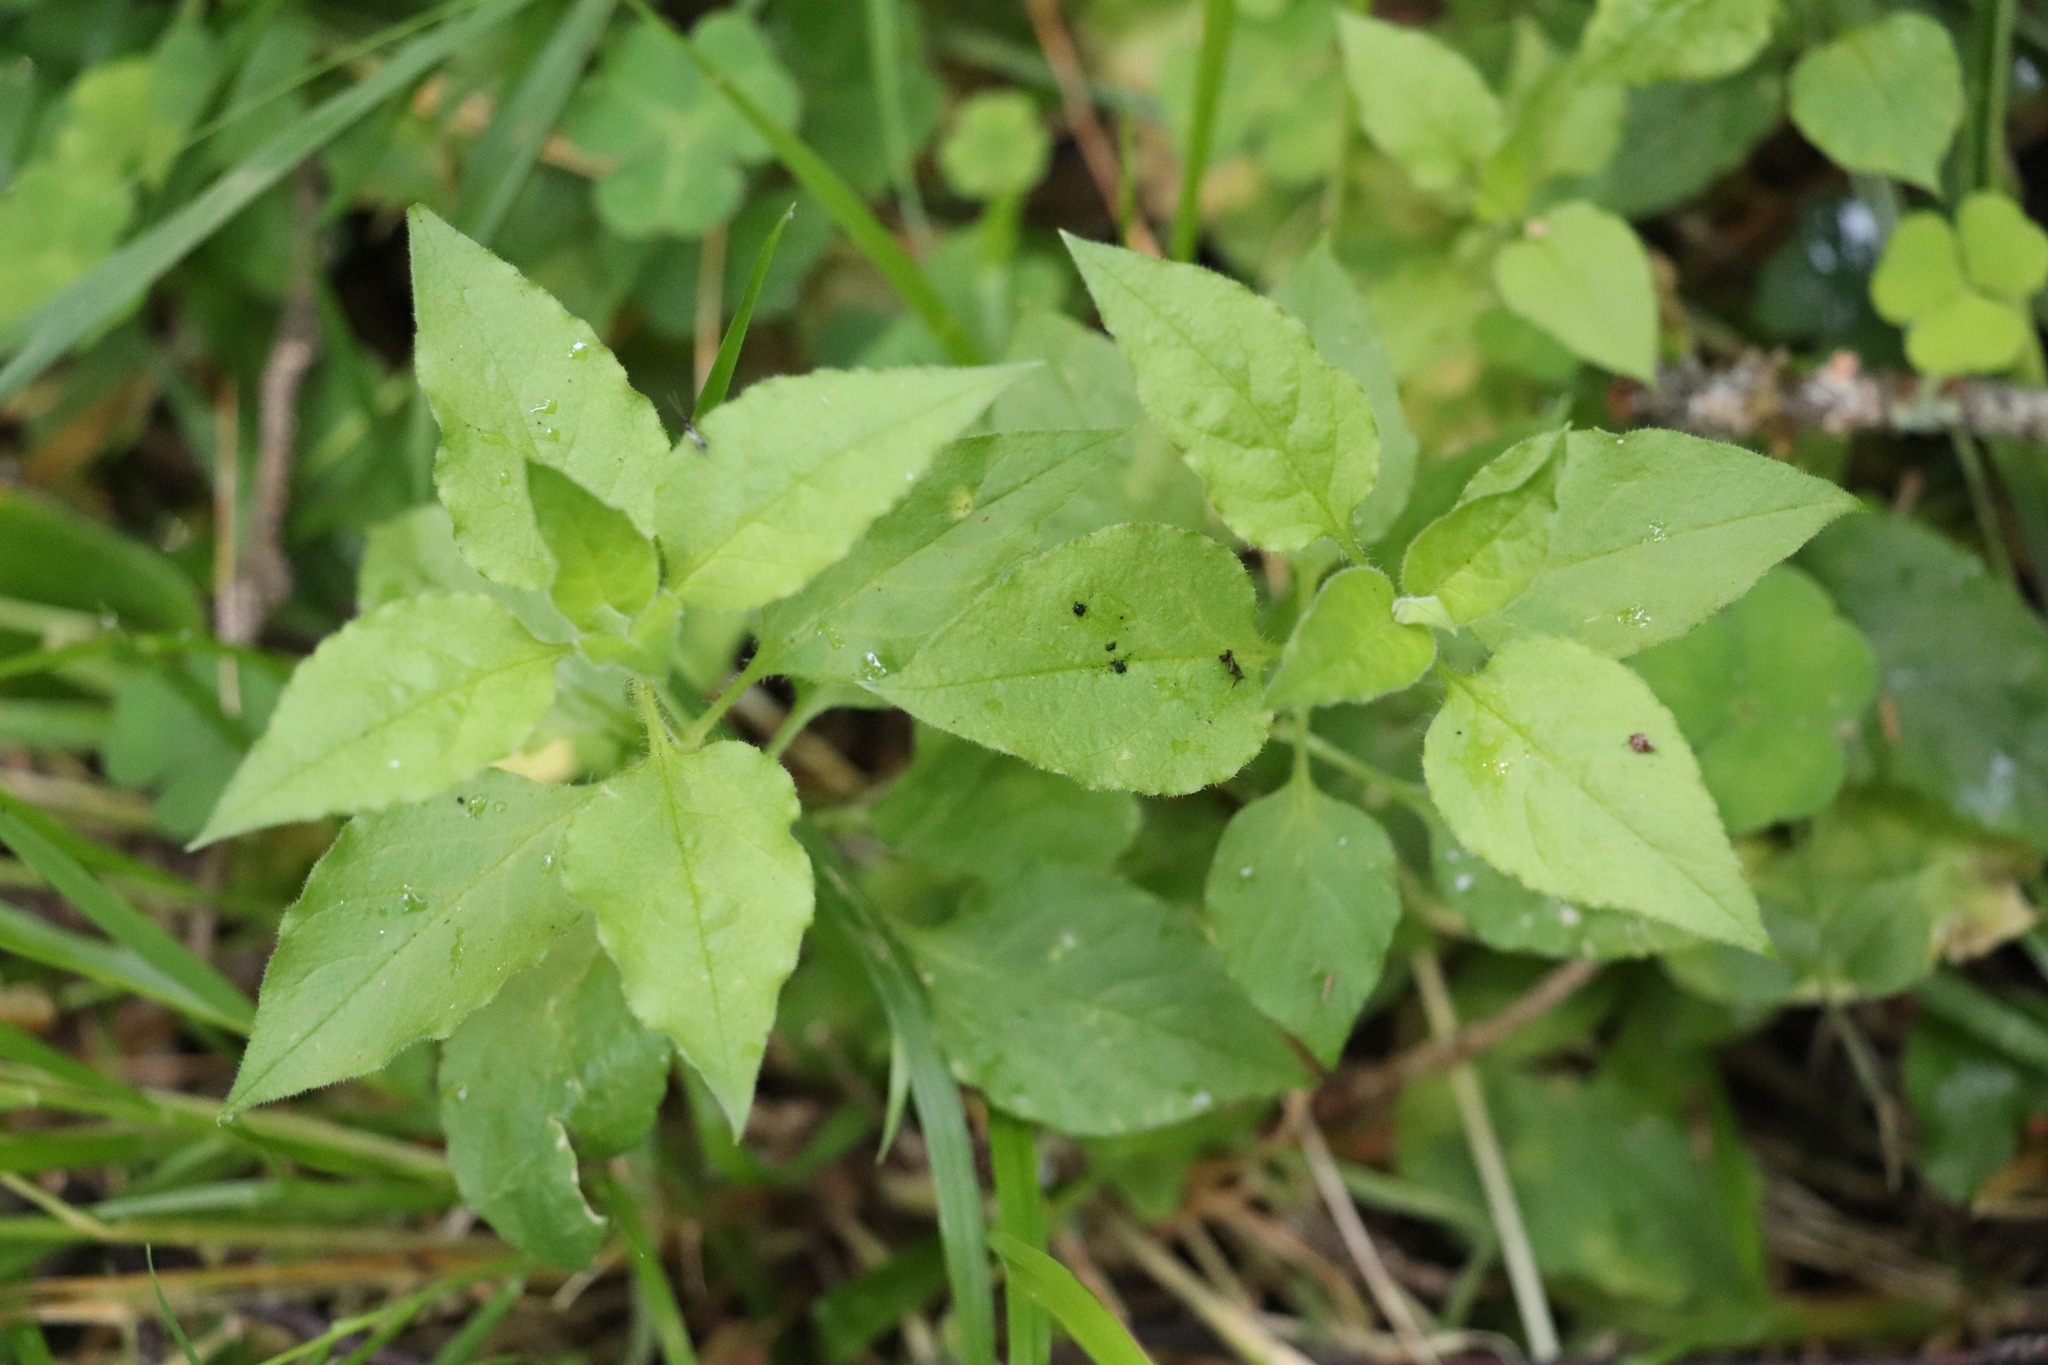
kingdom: Plantae
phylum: Tracheophyta
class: Magnoliopsida
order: Caryophyllales
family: Caryophyllaceae
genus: Stellaria
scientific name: Stellaria bungeana
